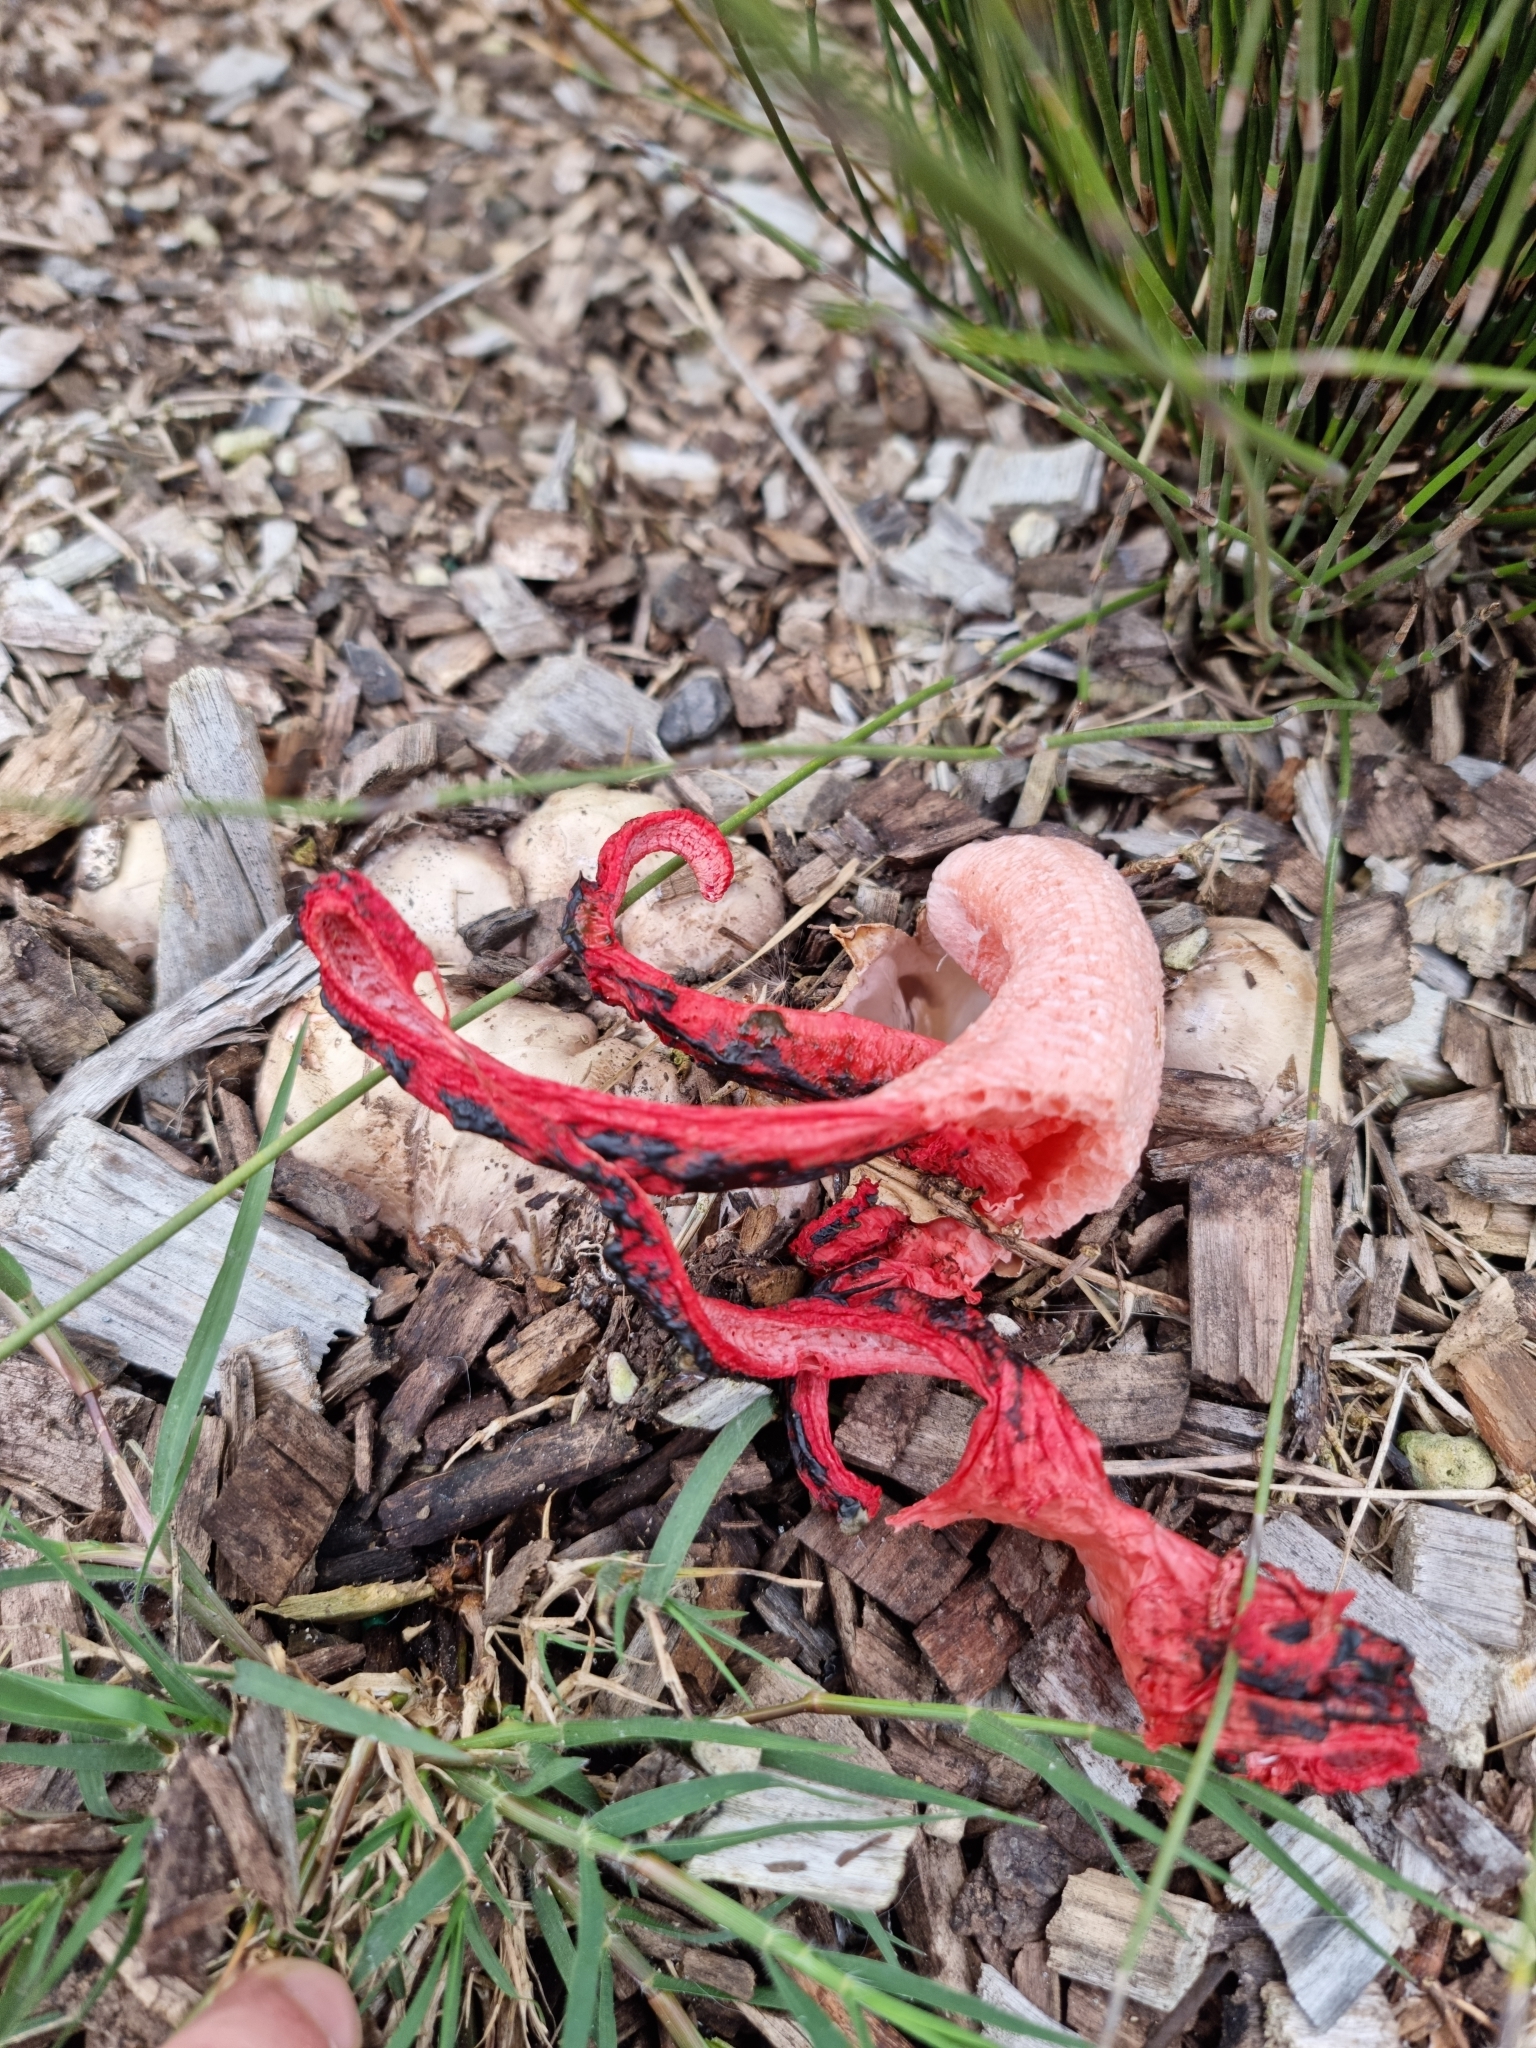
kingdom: Fungi
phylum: Basidiomycota
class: Agaricomycetes
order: Phallales
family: Phallaceae
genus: Clathrus
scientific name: Clathrus archeri
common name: Devil's fingers
